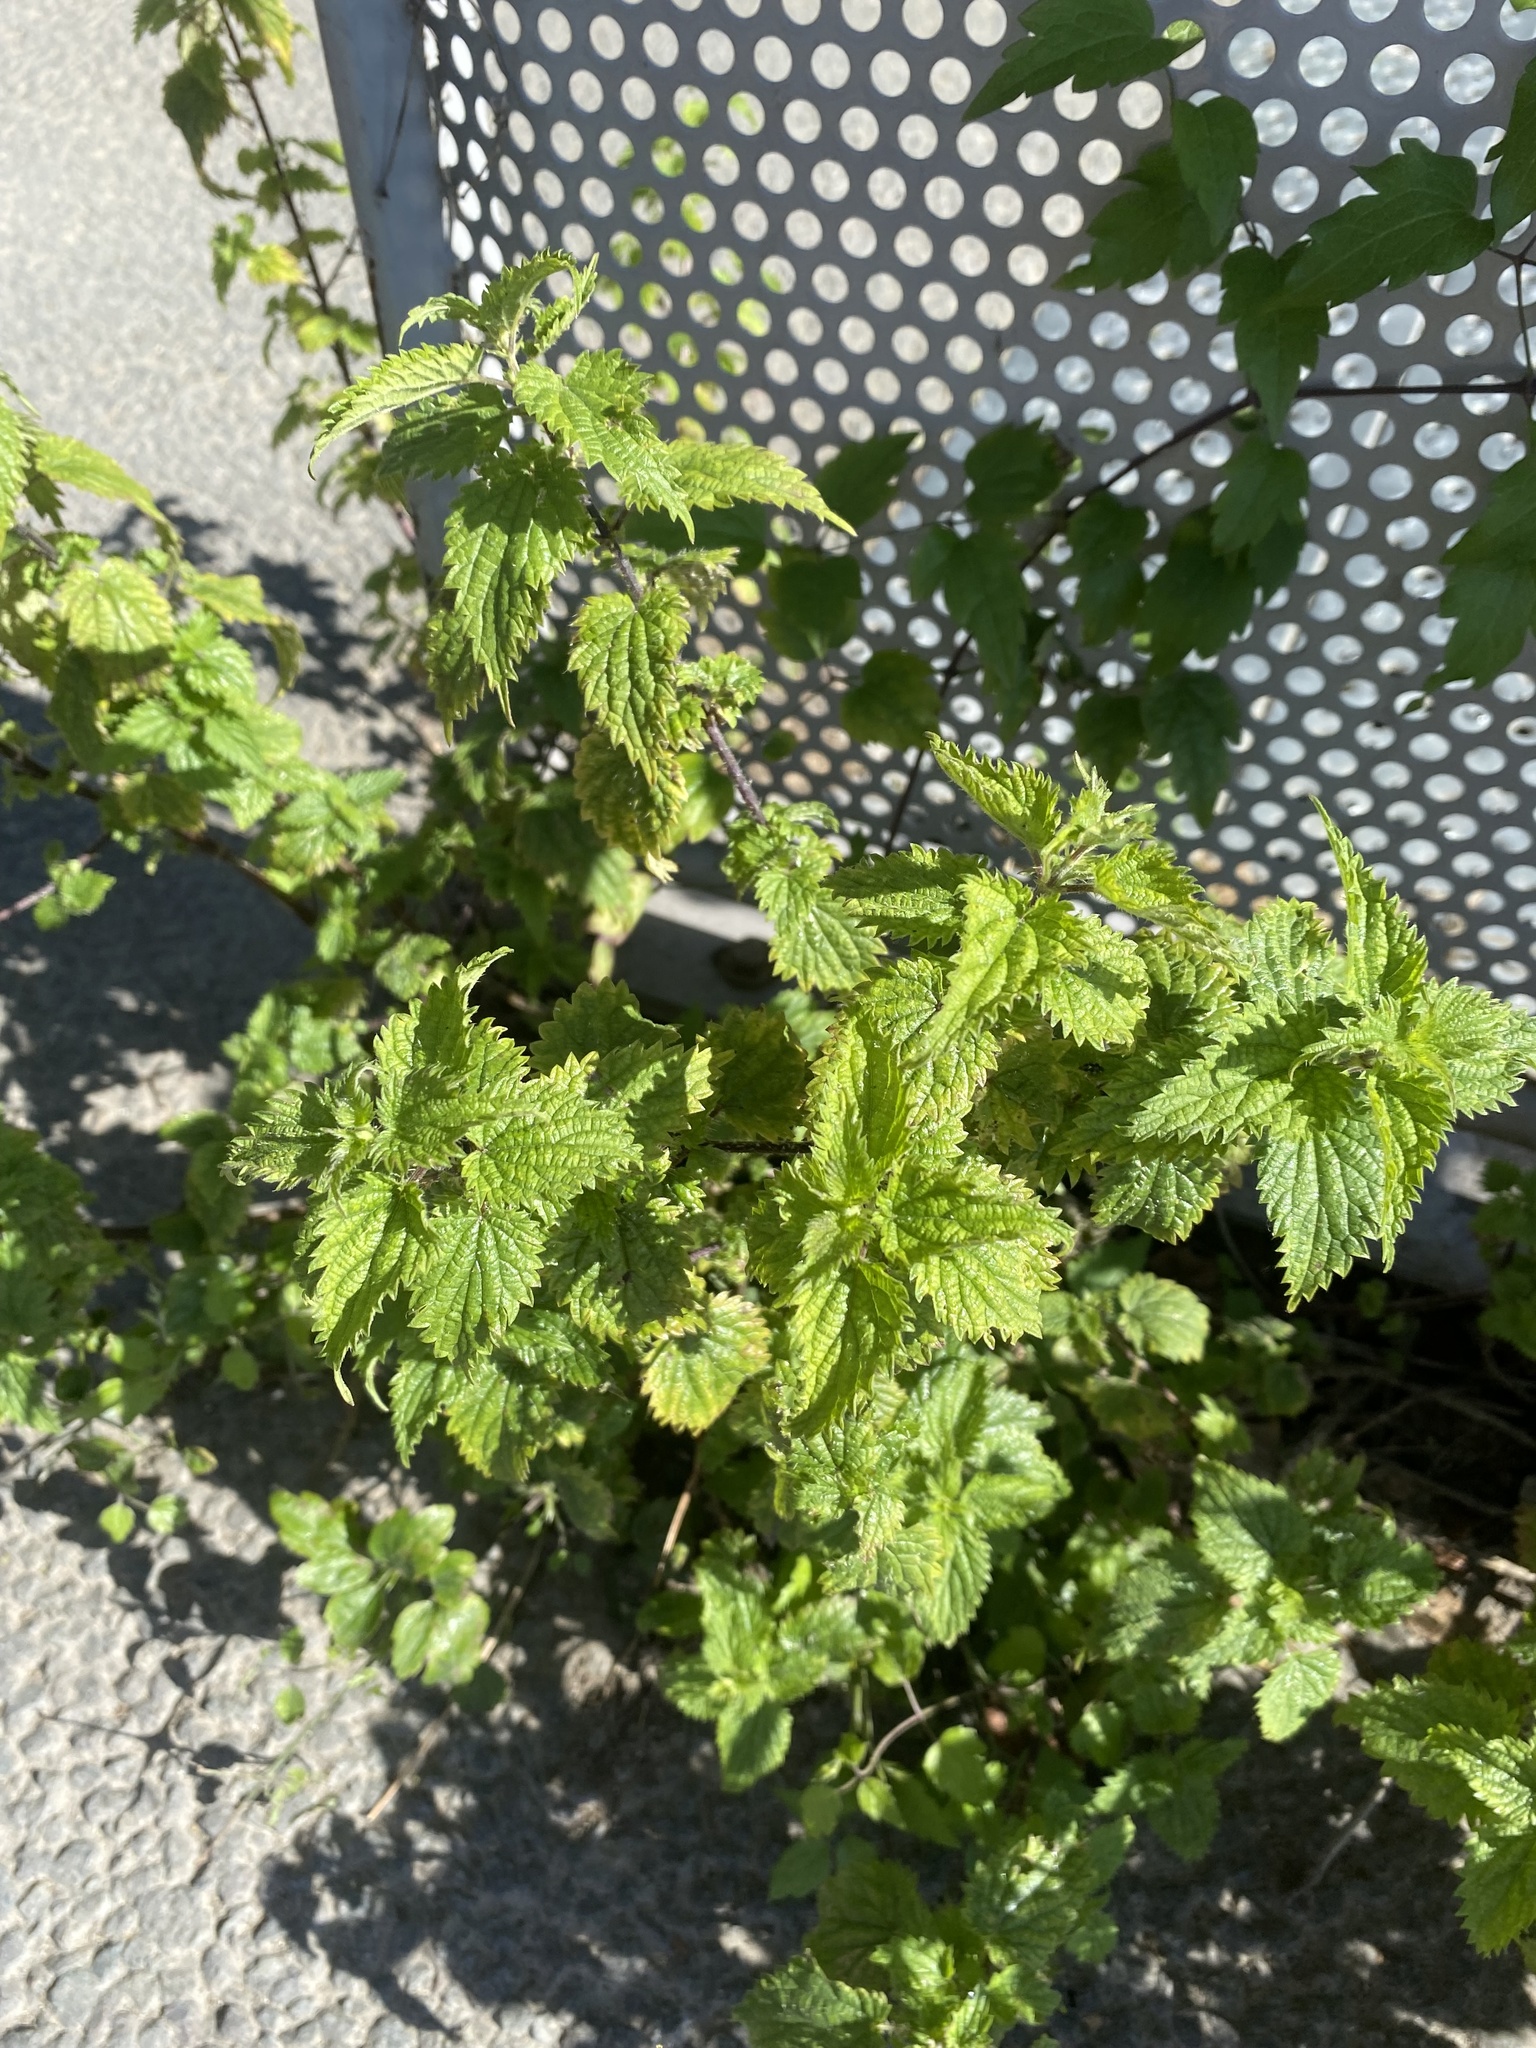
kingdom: Plantae
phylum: Tracheophyta
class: Magnoliopsida
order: Rosales
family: Urticaceae
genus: Urtica
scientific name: Urtica dioica
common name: Common nettle
